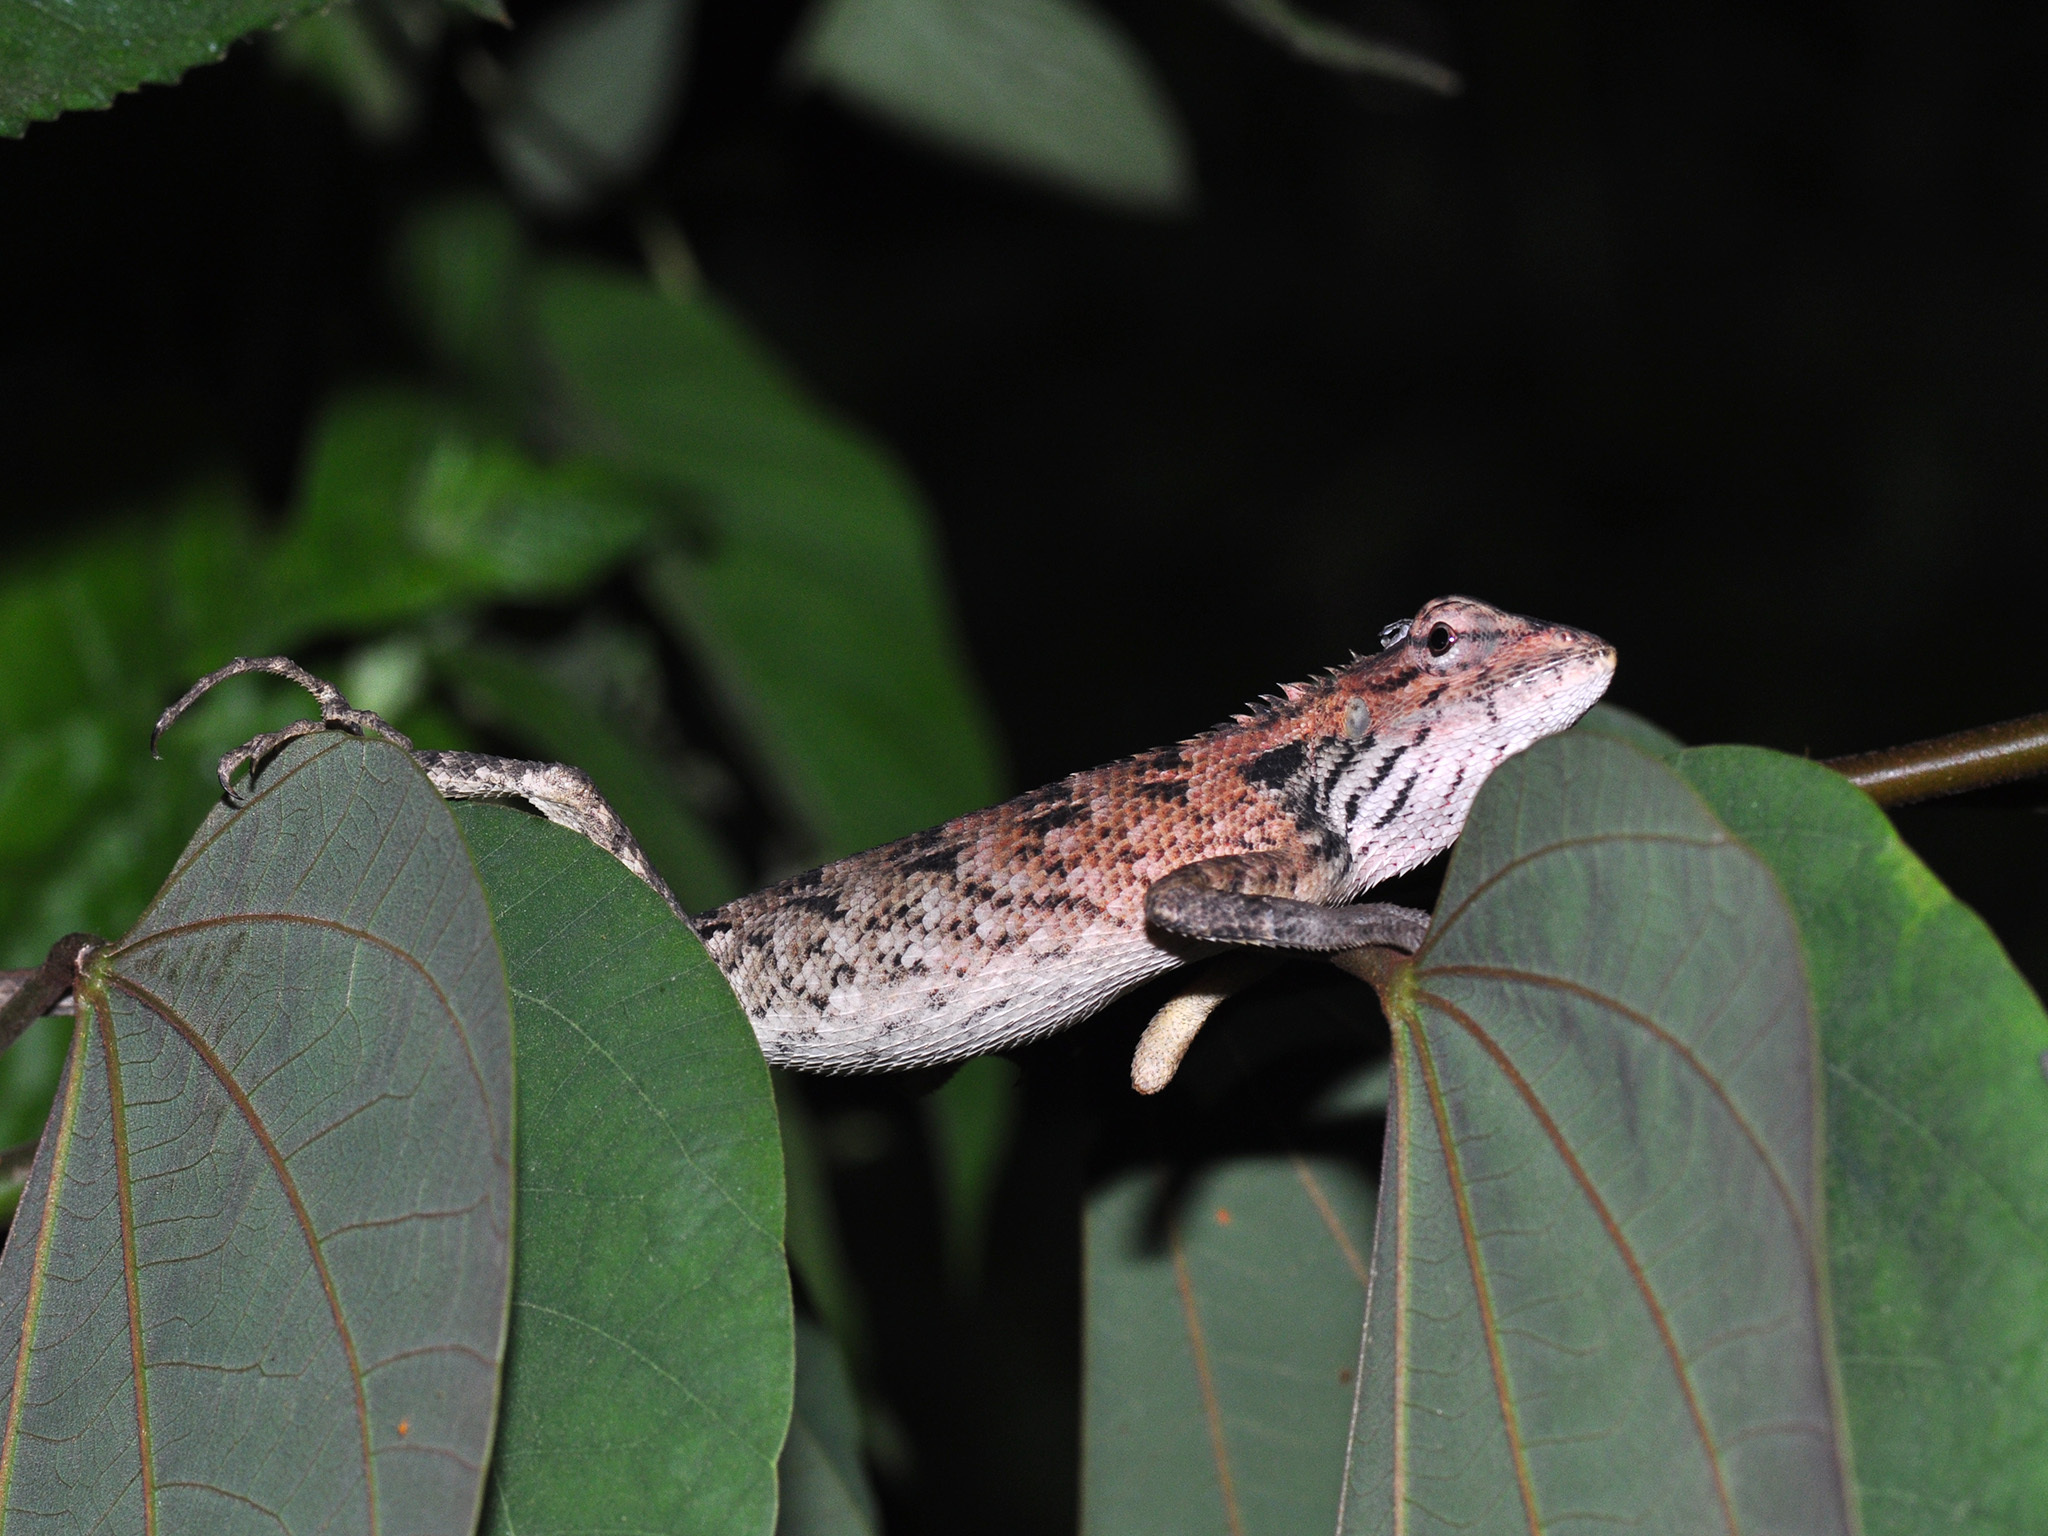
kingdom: Animalia
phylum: Chordata
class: Squamata
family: Agamidae
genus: Calotes
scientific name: Calotes versicolor
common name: Oriental garden lizard
